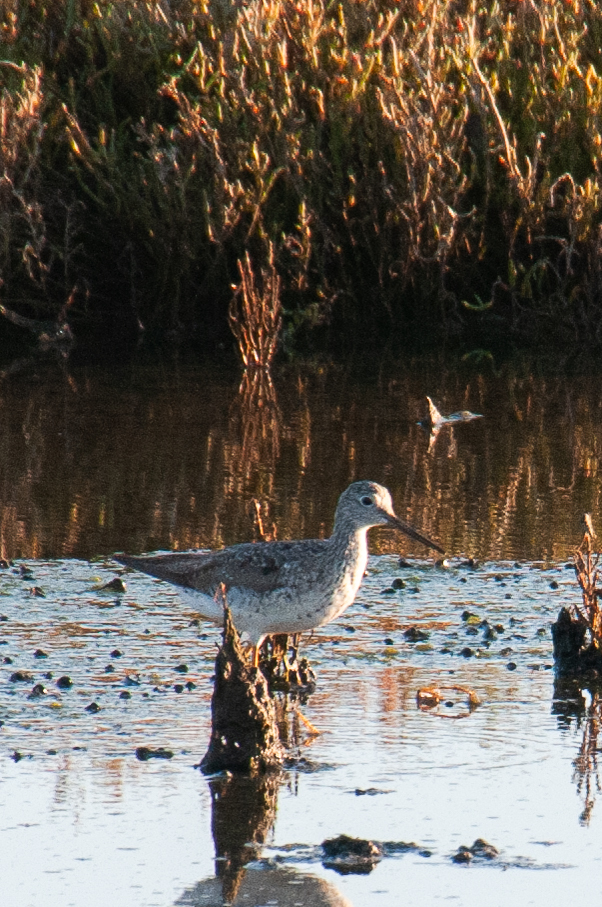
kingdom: Animalia
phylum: Chordata
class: Aves
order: Charadriiformes
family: Scolopacidae
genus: Tringa
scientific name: Tringa melanoleuca
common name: Greater yellowlegs
